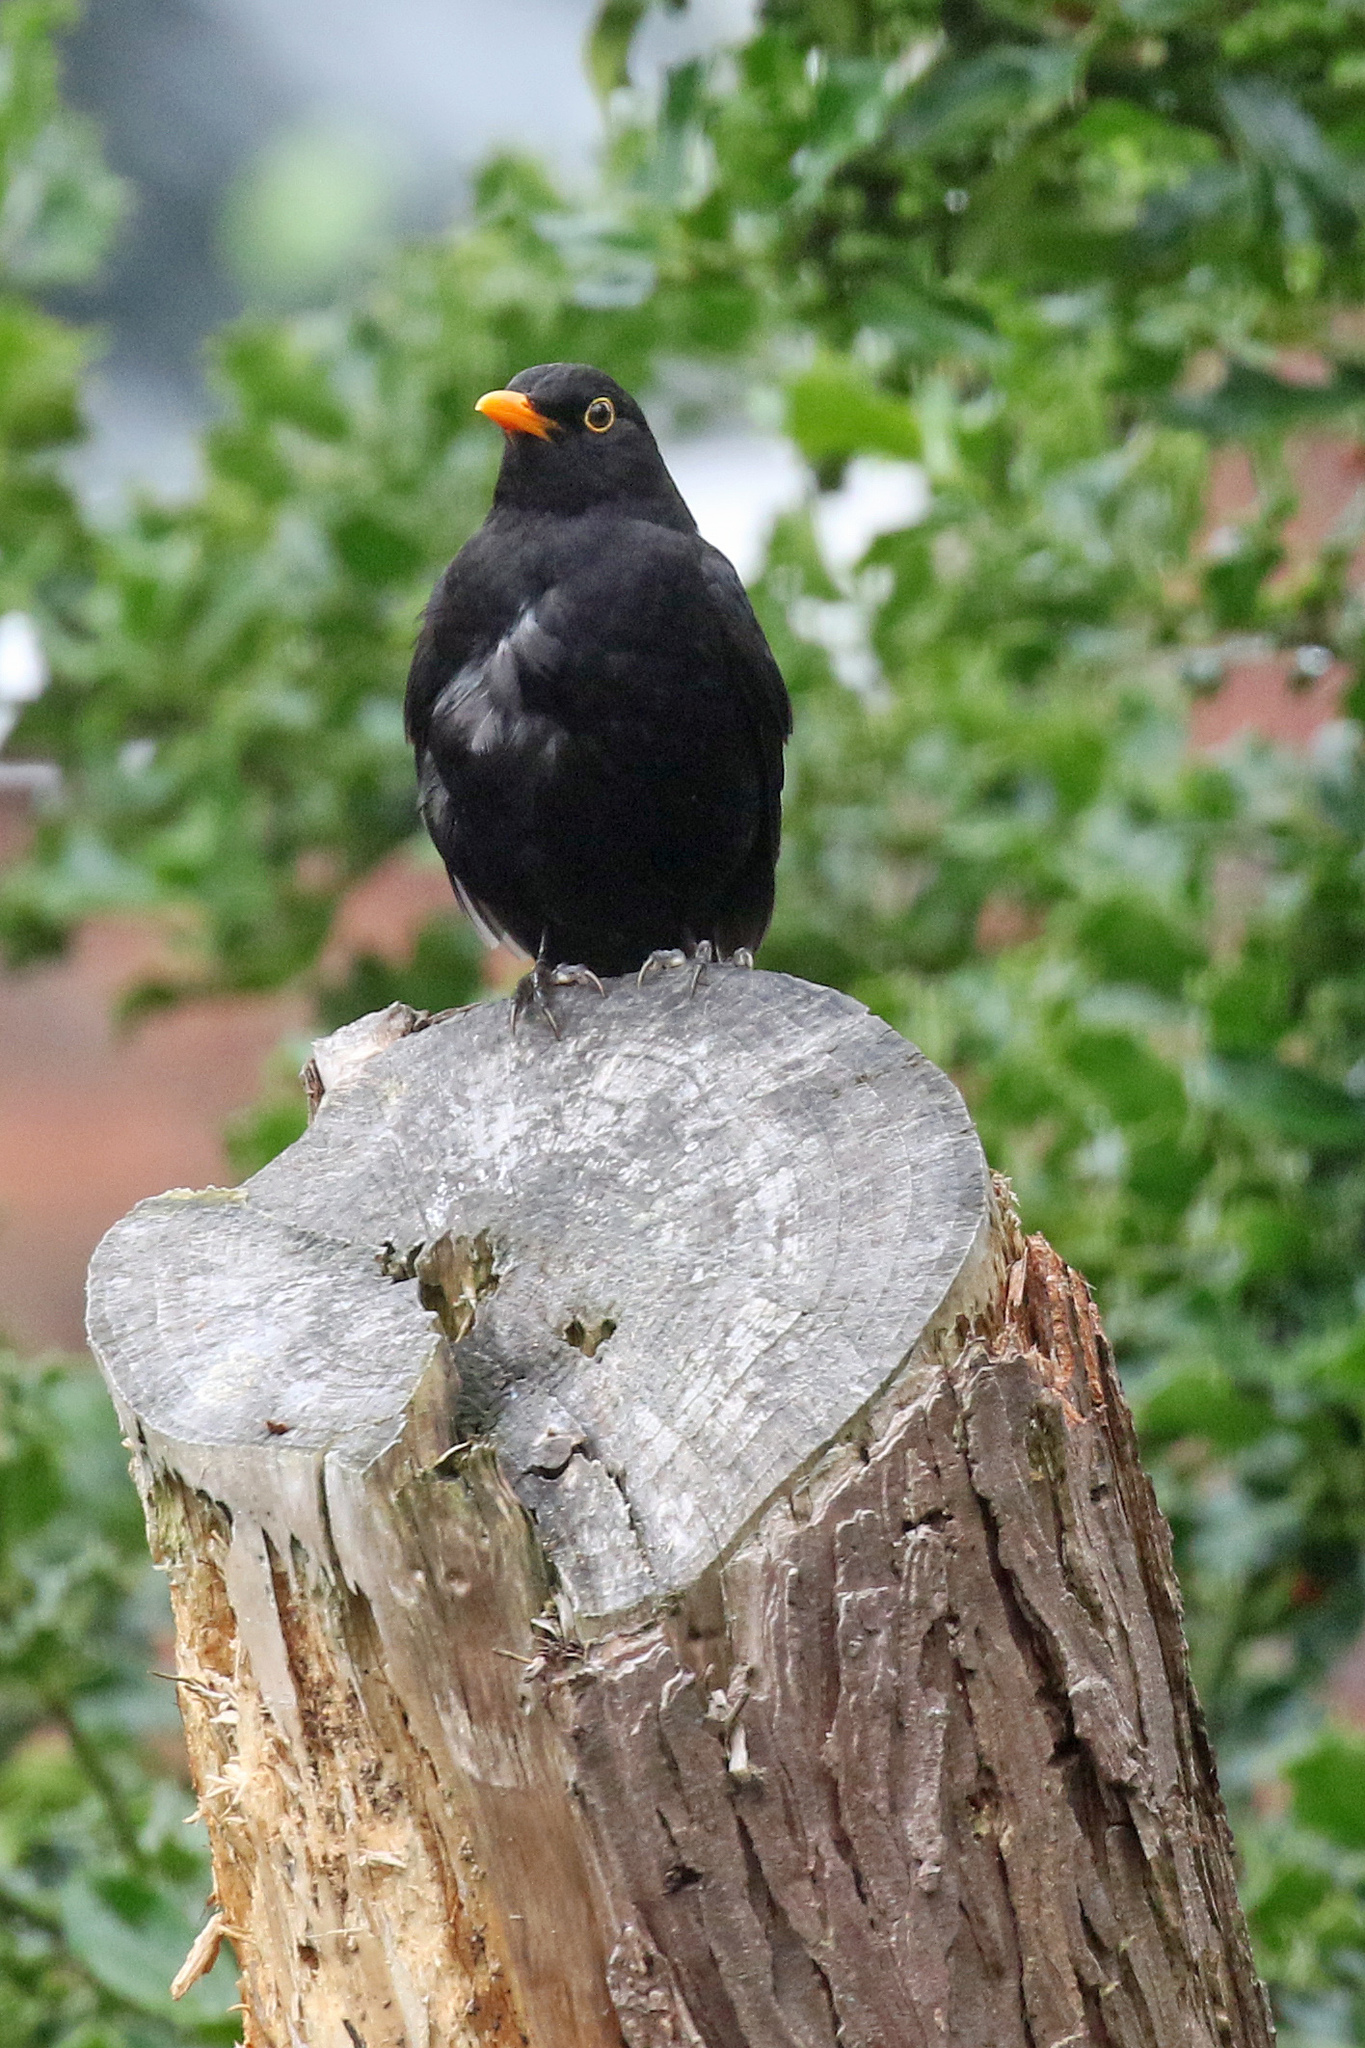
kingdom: Animalia
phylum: Chordata
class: Aves
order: Passeriformes
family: Turdidae
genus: Turdus
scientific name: Turdus merula
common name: Common blackbird
